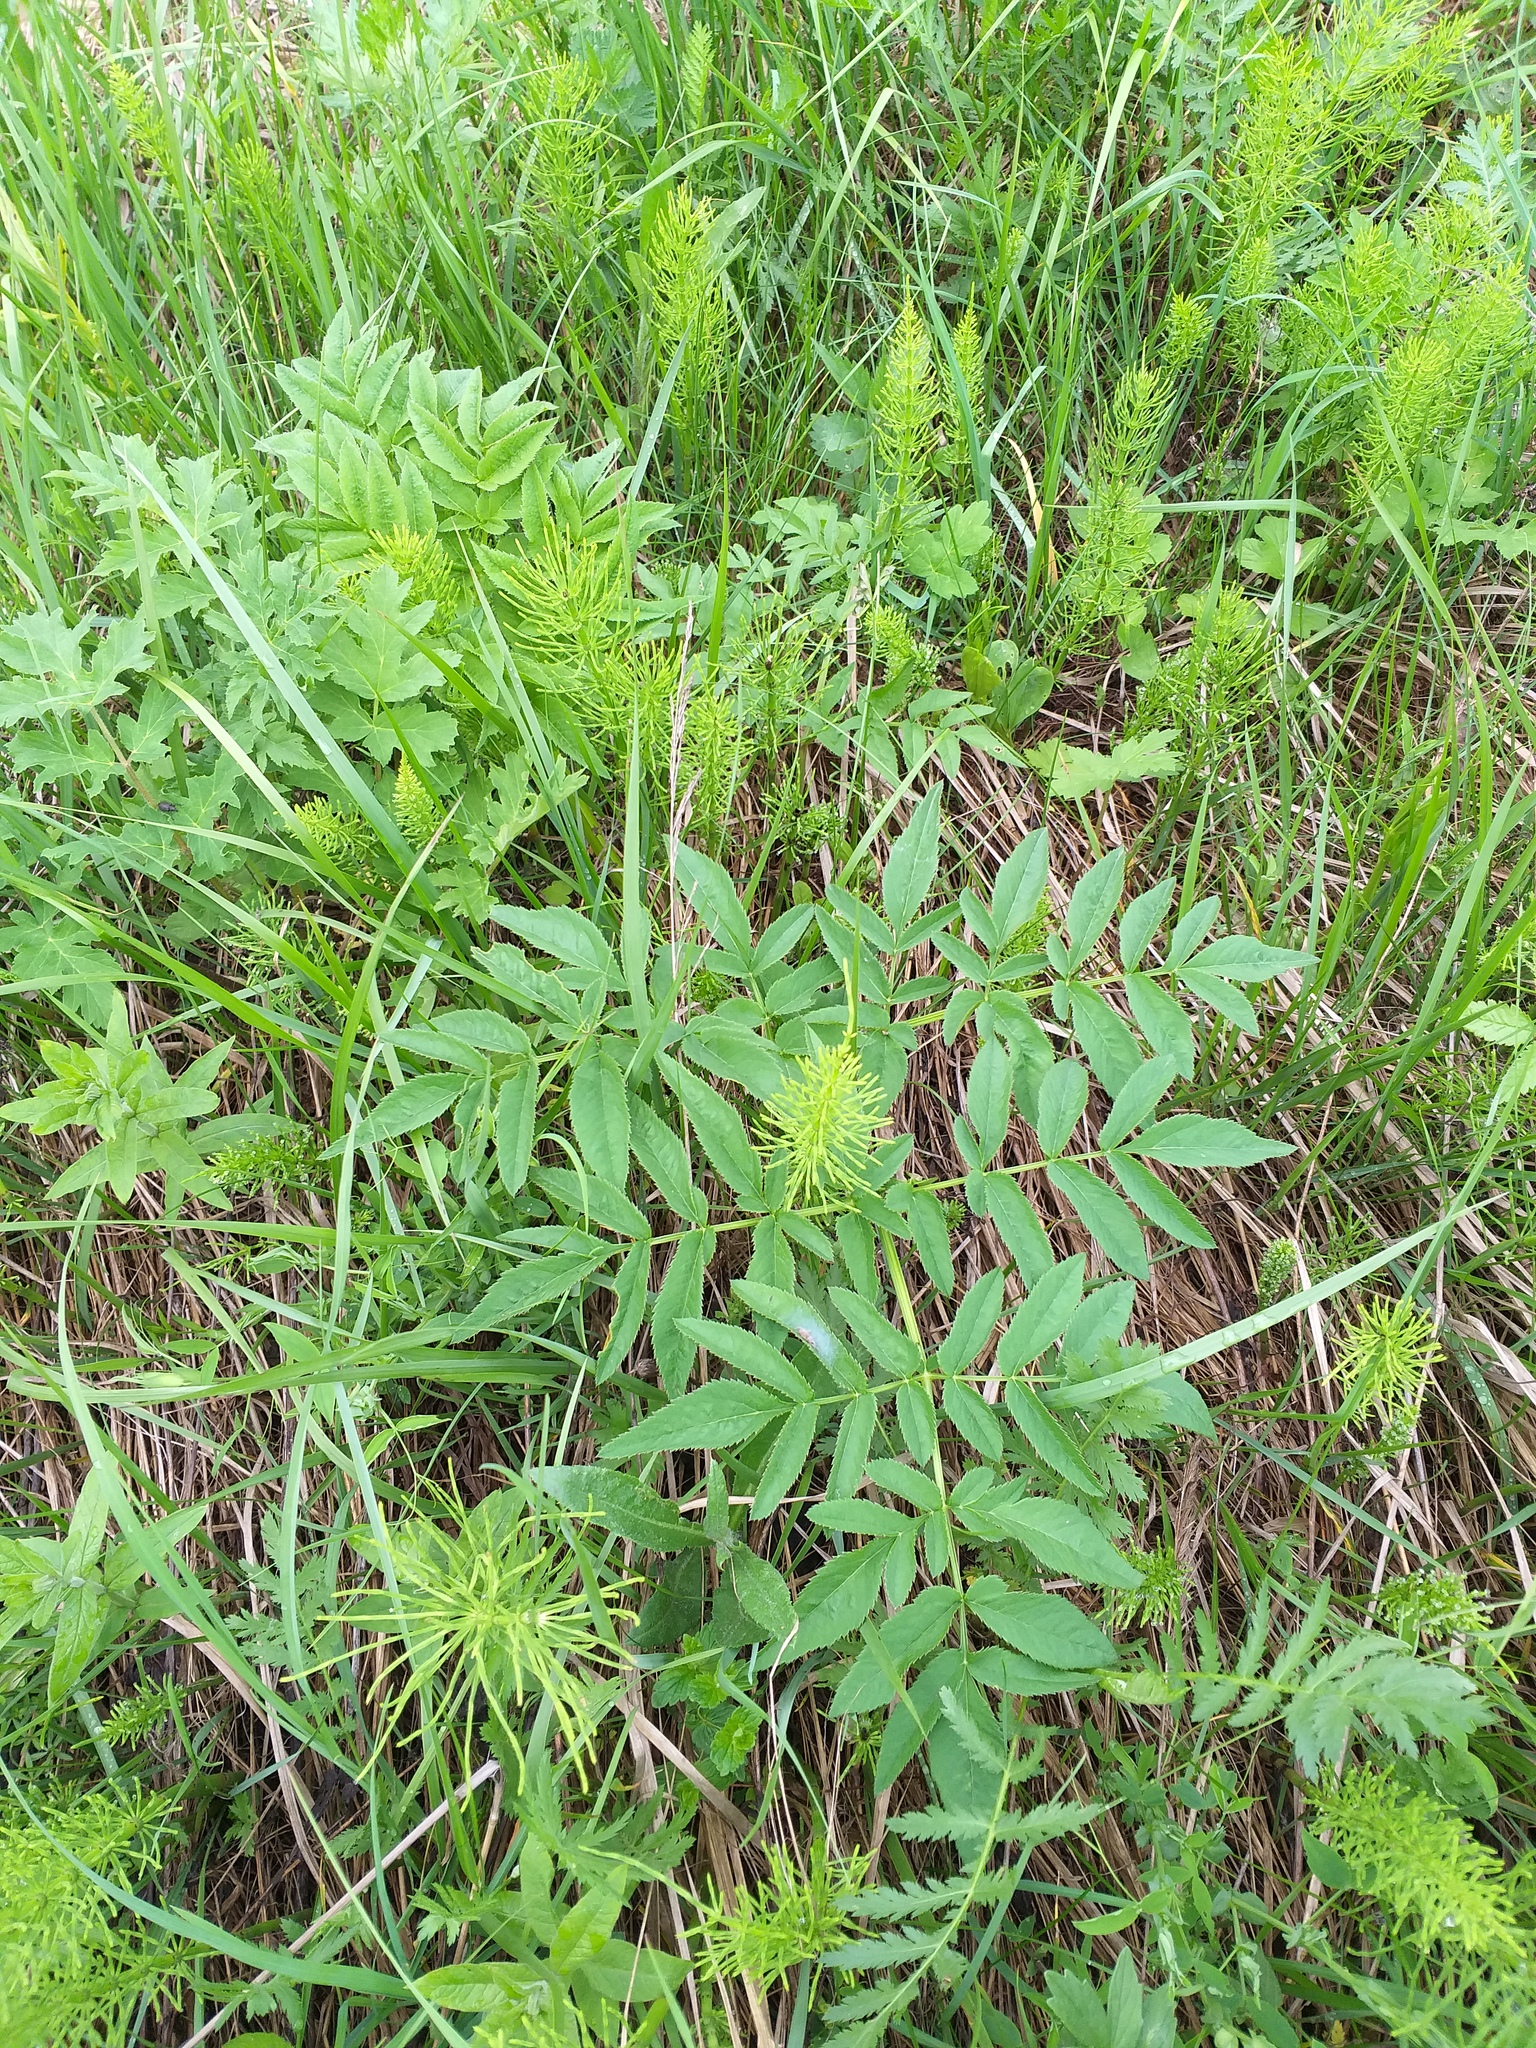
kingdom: Plantae
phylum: Tracheophyta
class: Magnoliopsida
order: Apiales
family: Apiaceae
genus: Angelica
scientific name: Angelica sylvestris
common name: Wild angelica
